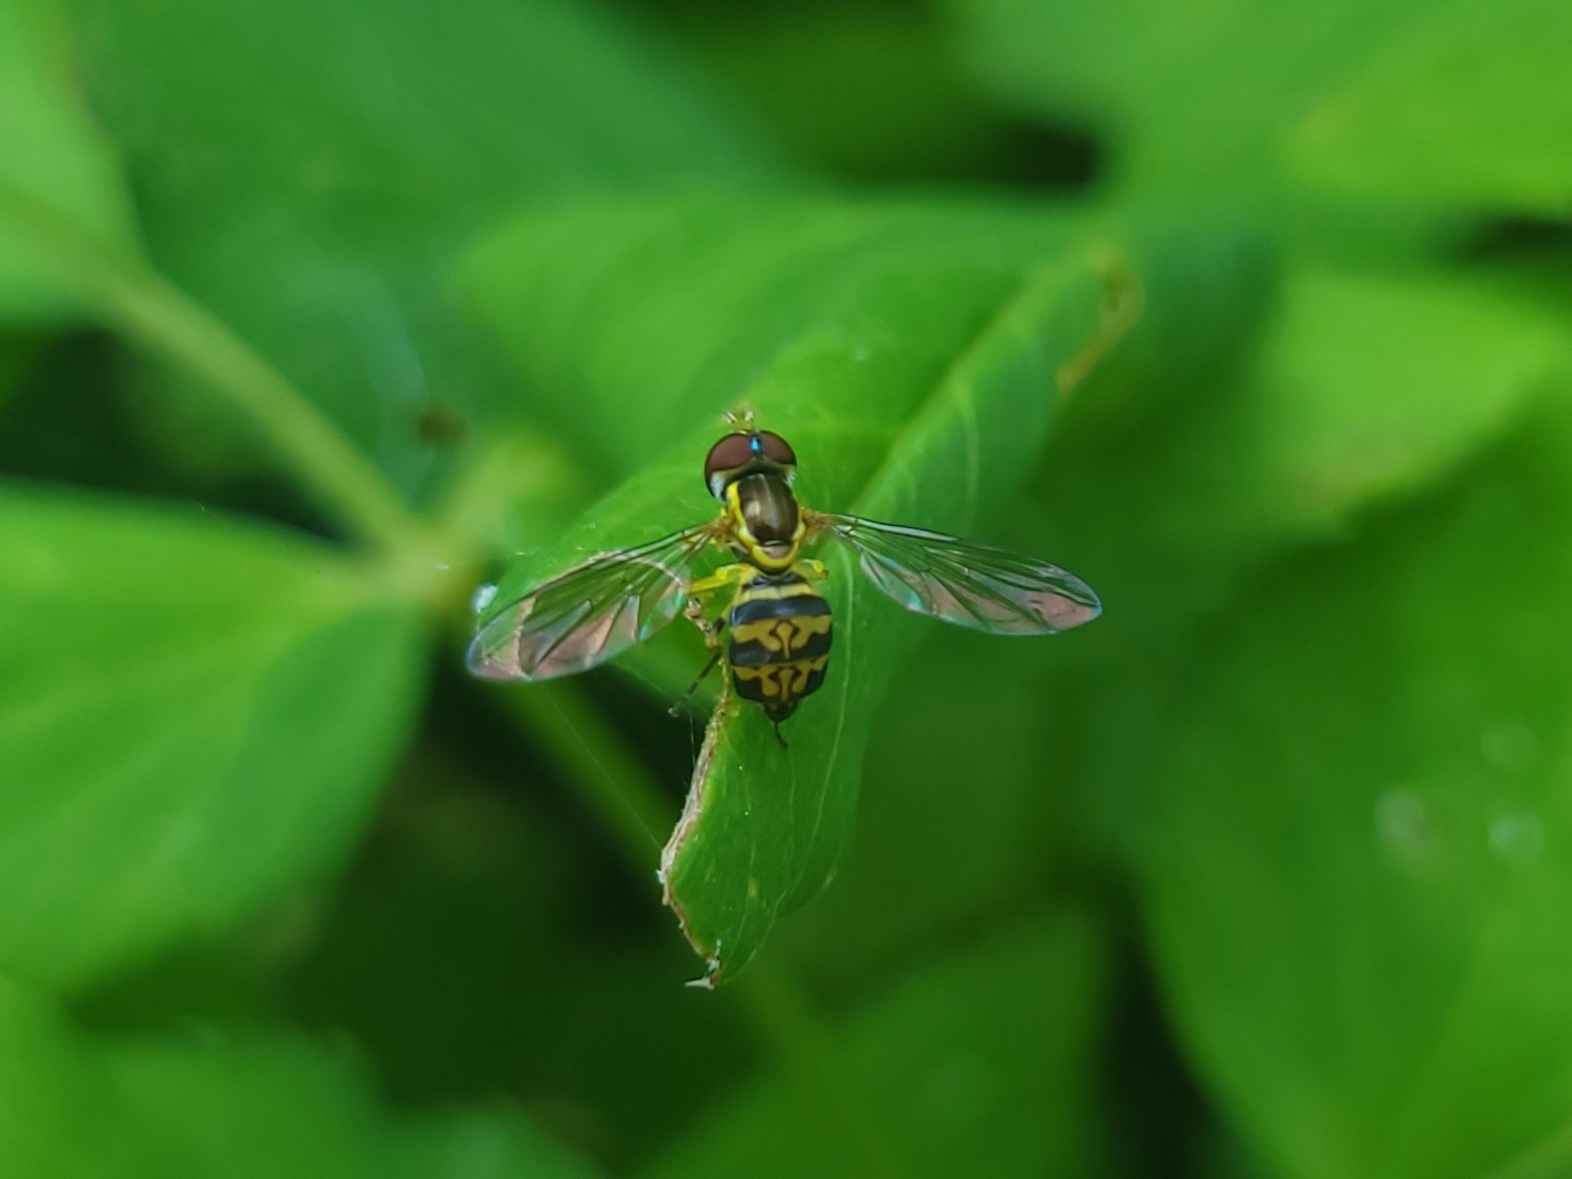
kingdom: Animalia
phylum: Arthropoda
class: Insecta
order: Diptera
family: Syrphidae
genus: Toxomerus
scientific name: Toxomerus geminatus
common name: Eastern calligrapher
